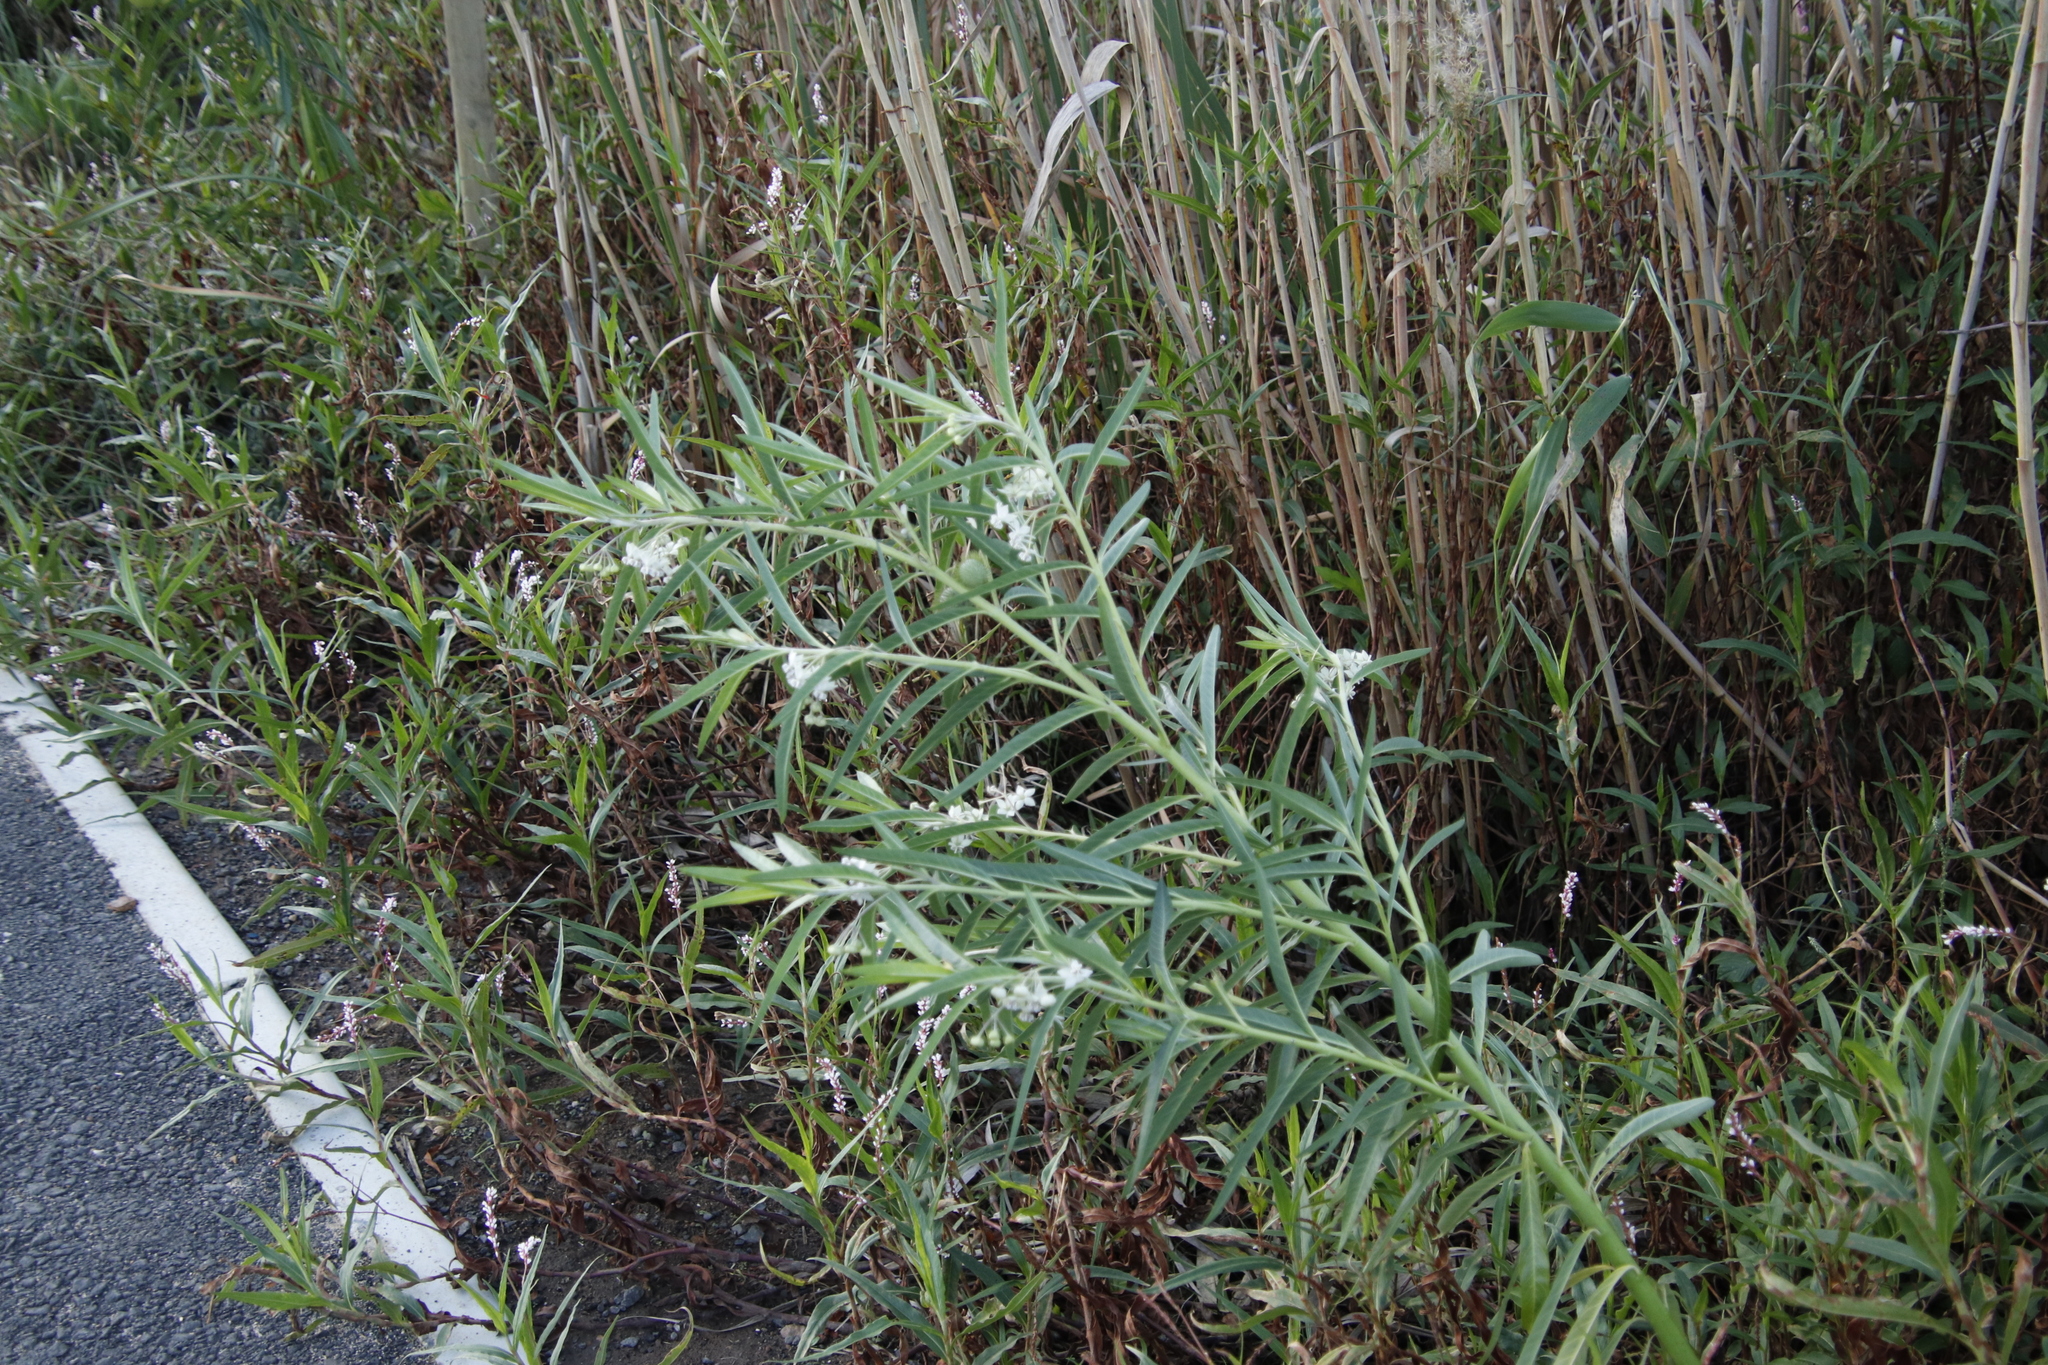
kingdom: Plantae
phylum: Tracheophyta
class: Magnoliopsida
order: Gentianales
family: Apocynaceae
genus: Gomphocarpus
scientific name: Gomphocarpus physocarpus
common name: Balloon cotton bush
